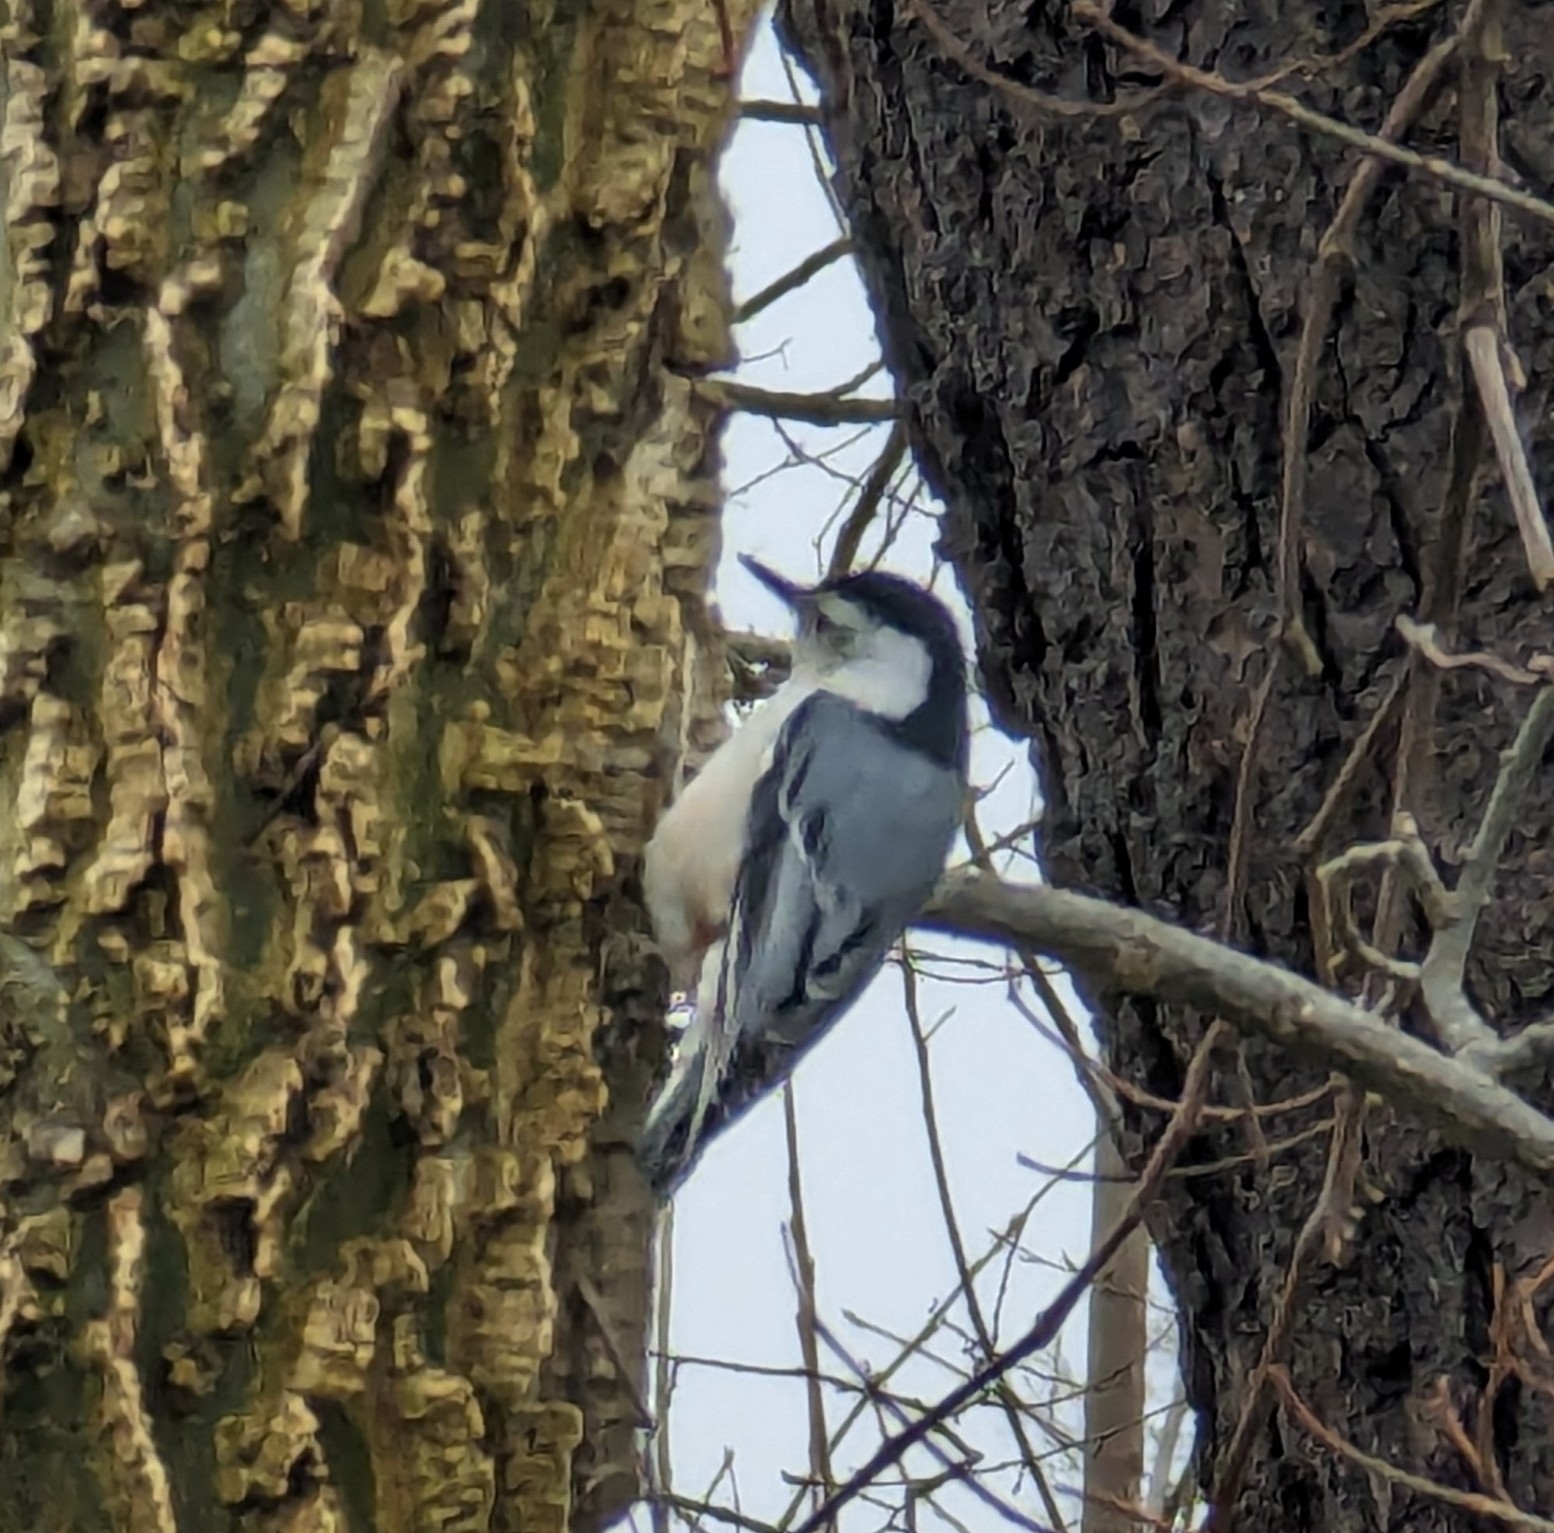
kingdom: Animalia
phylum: Chordata
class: Aves
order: Passeriformes
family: Sittidae
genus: Sitta
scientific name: Sitta carolinensis
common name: White-breasted nuthatch
